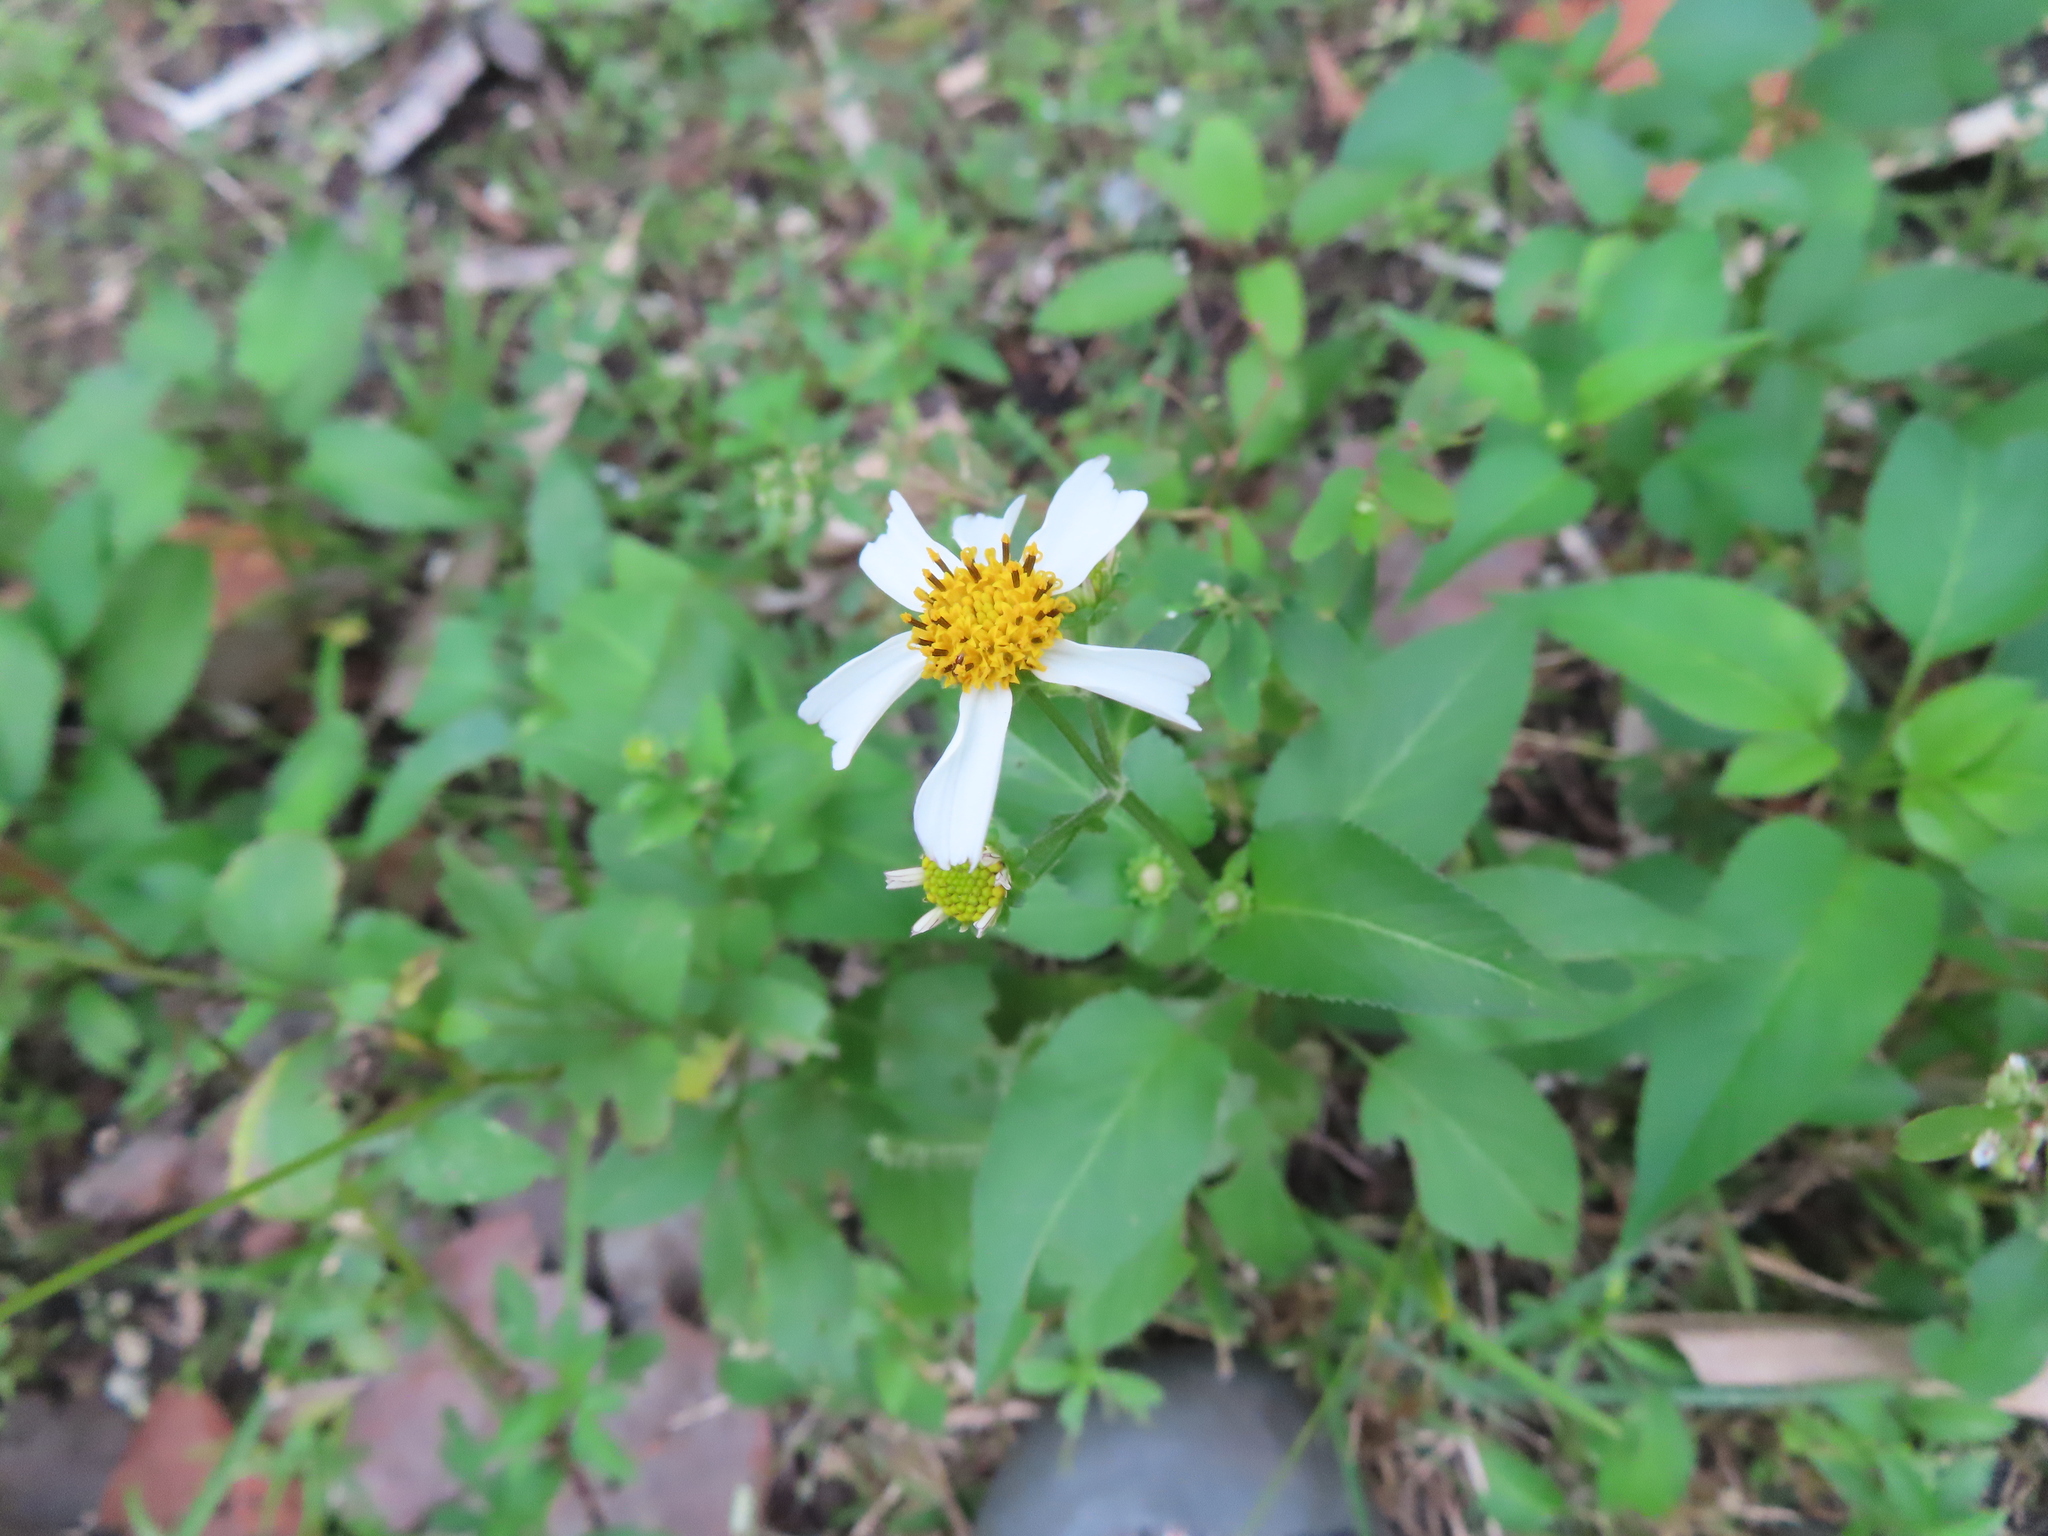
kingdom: Plantae
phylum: Tracheophyta
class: Magnoliopsida
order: Asterales
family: Asteraceae
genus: Bidens
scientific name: Bidens alba
